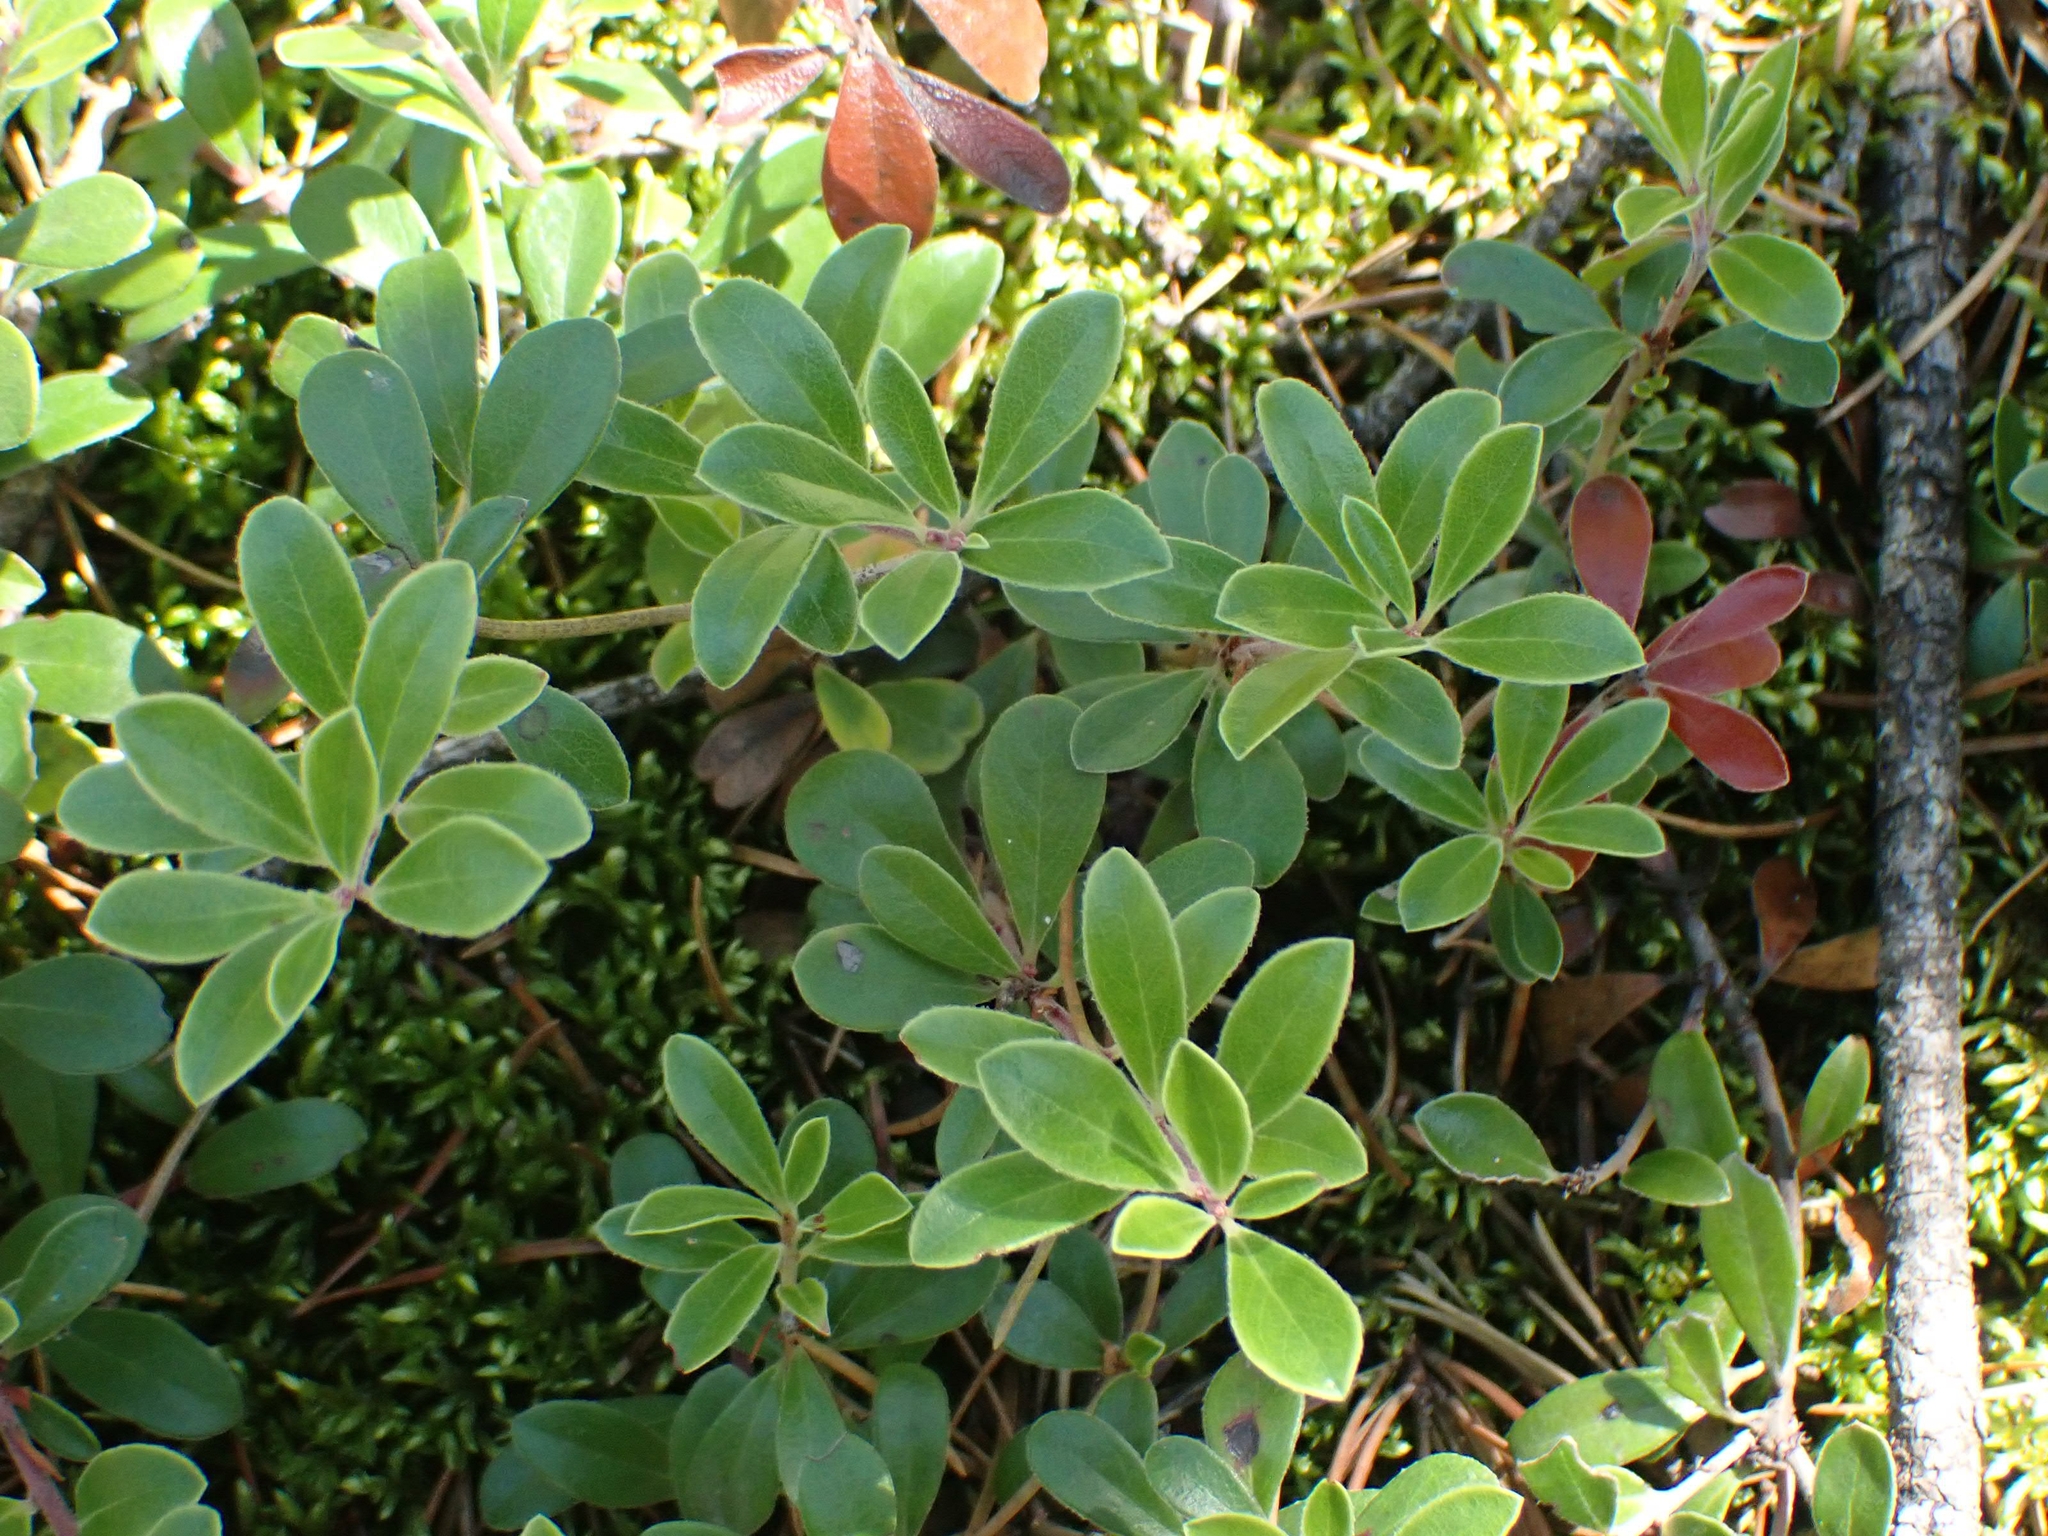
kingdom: Plantae
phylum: Tracheophyta
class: Magnoliopsida
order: Ericales
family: Ericaceae
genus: Arctostaphylos
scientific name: Arctostaphylos uva-ursi
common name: Bearberry
